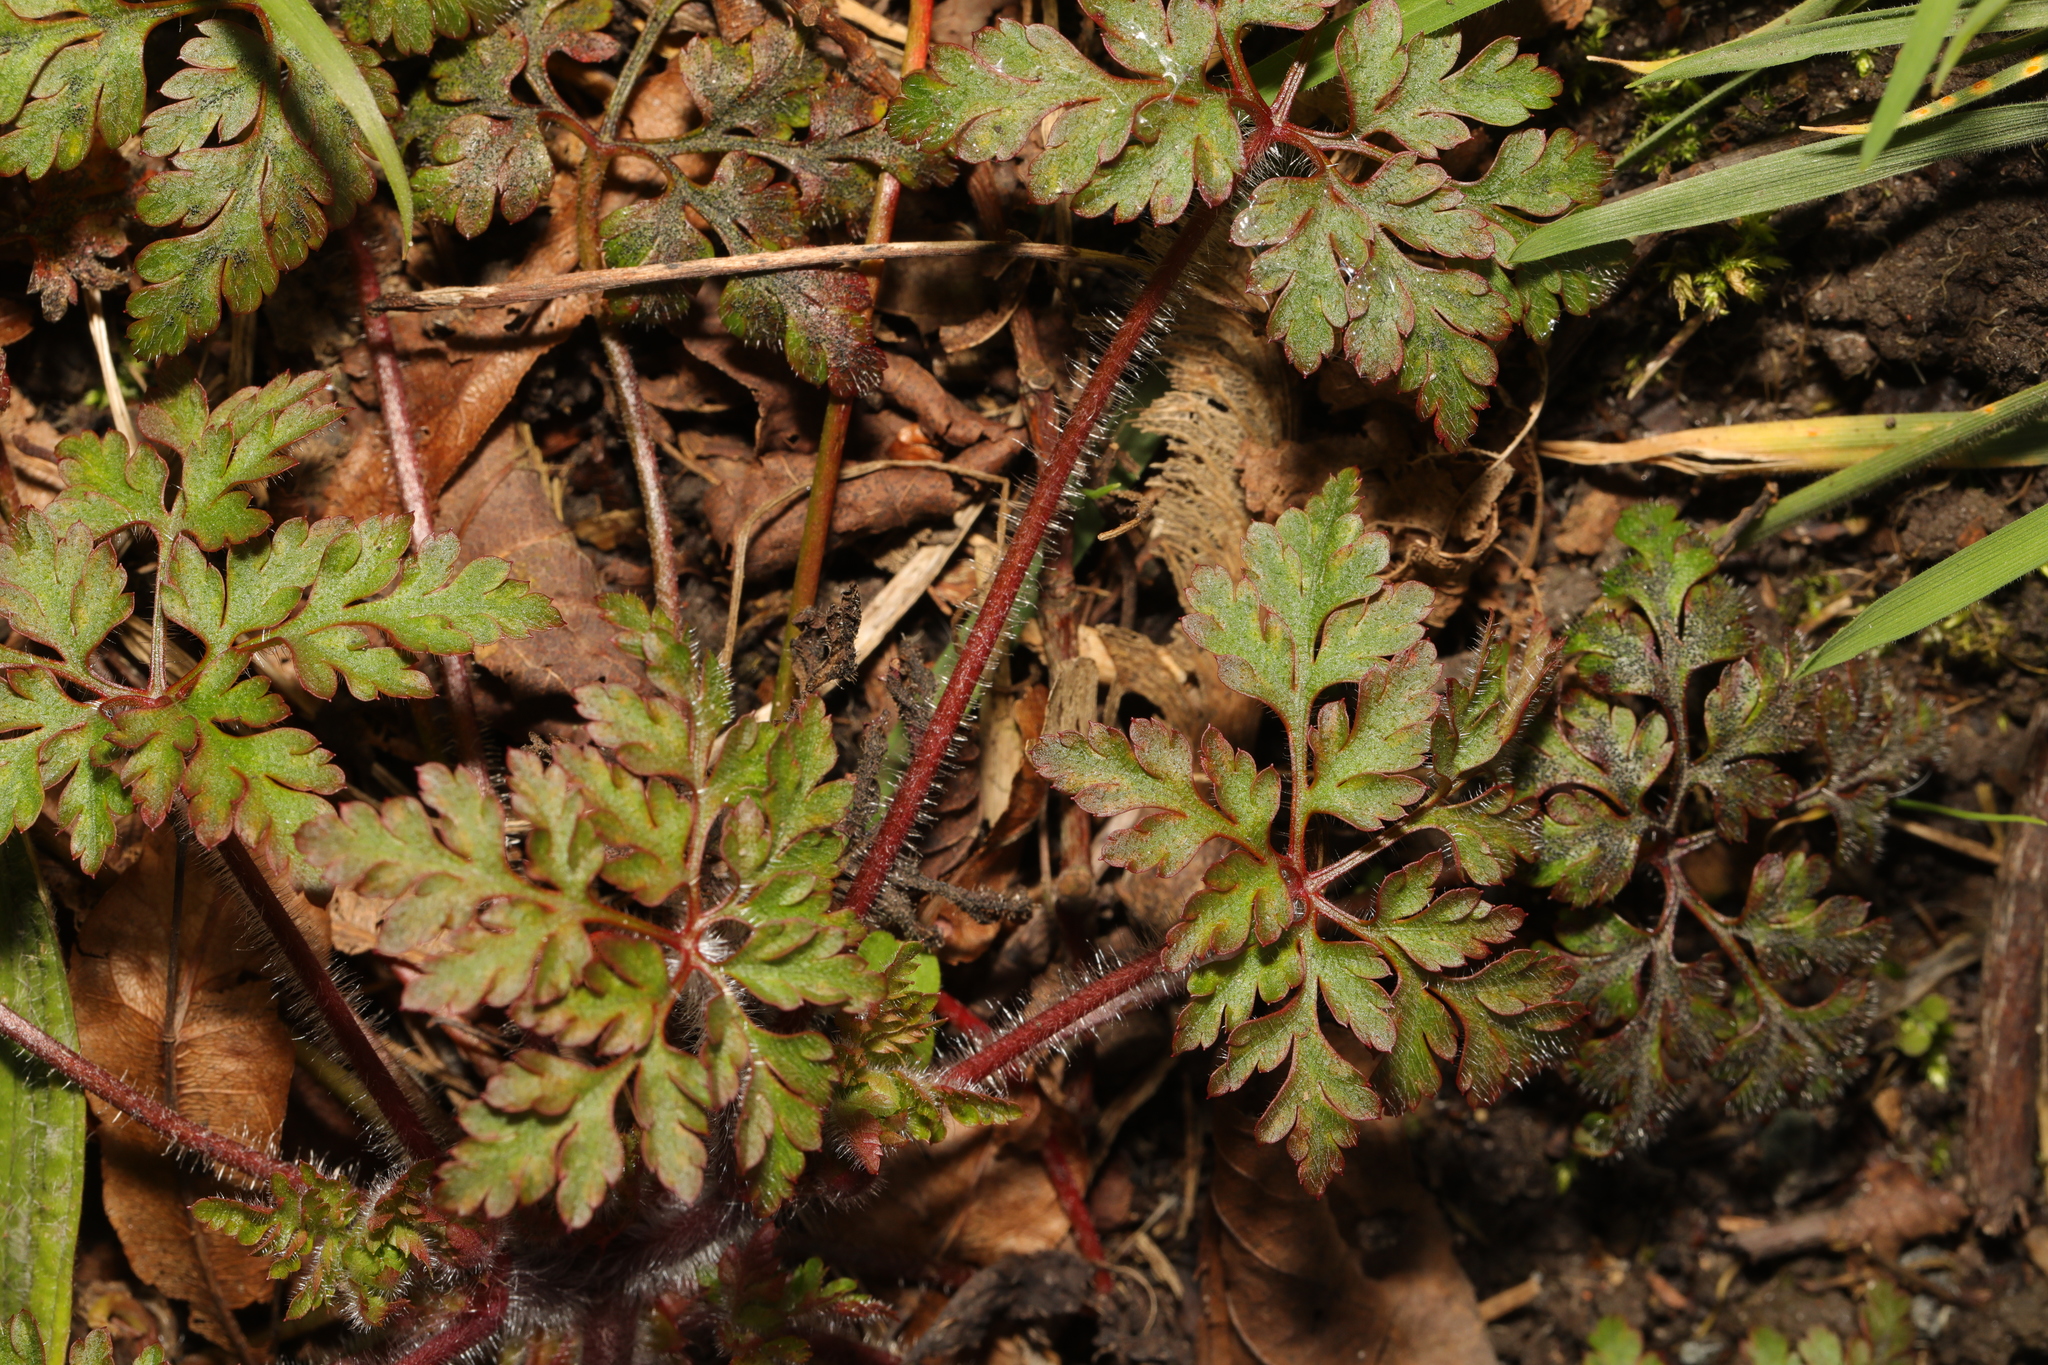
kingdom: Plantae
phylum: Tracheophyta
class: Magnoliopsida
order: Geraniales
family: Geraniaceae
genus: Geranium
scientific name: Geranium robertianum
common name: Herb-robert
